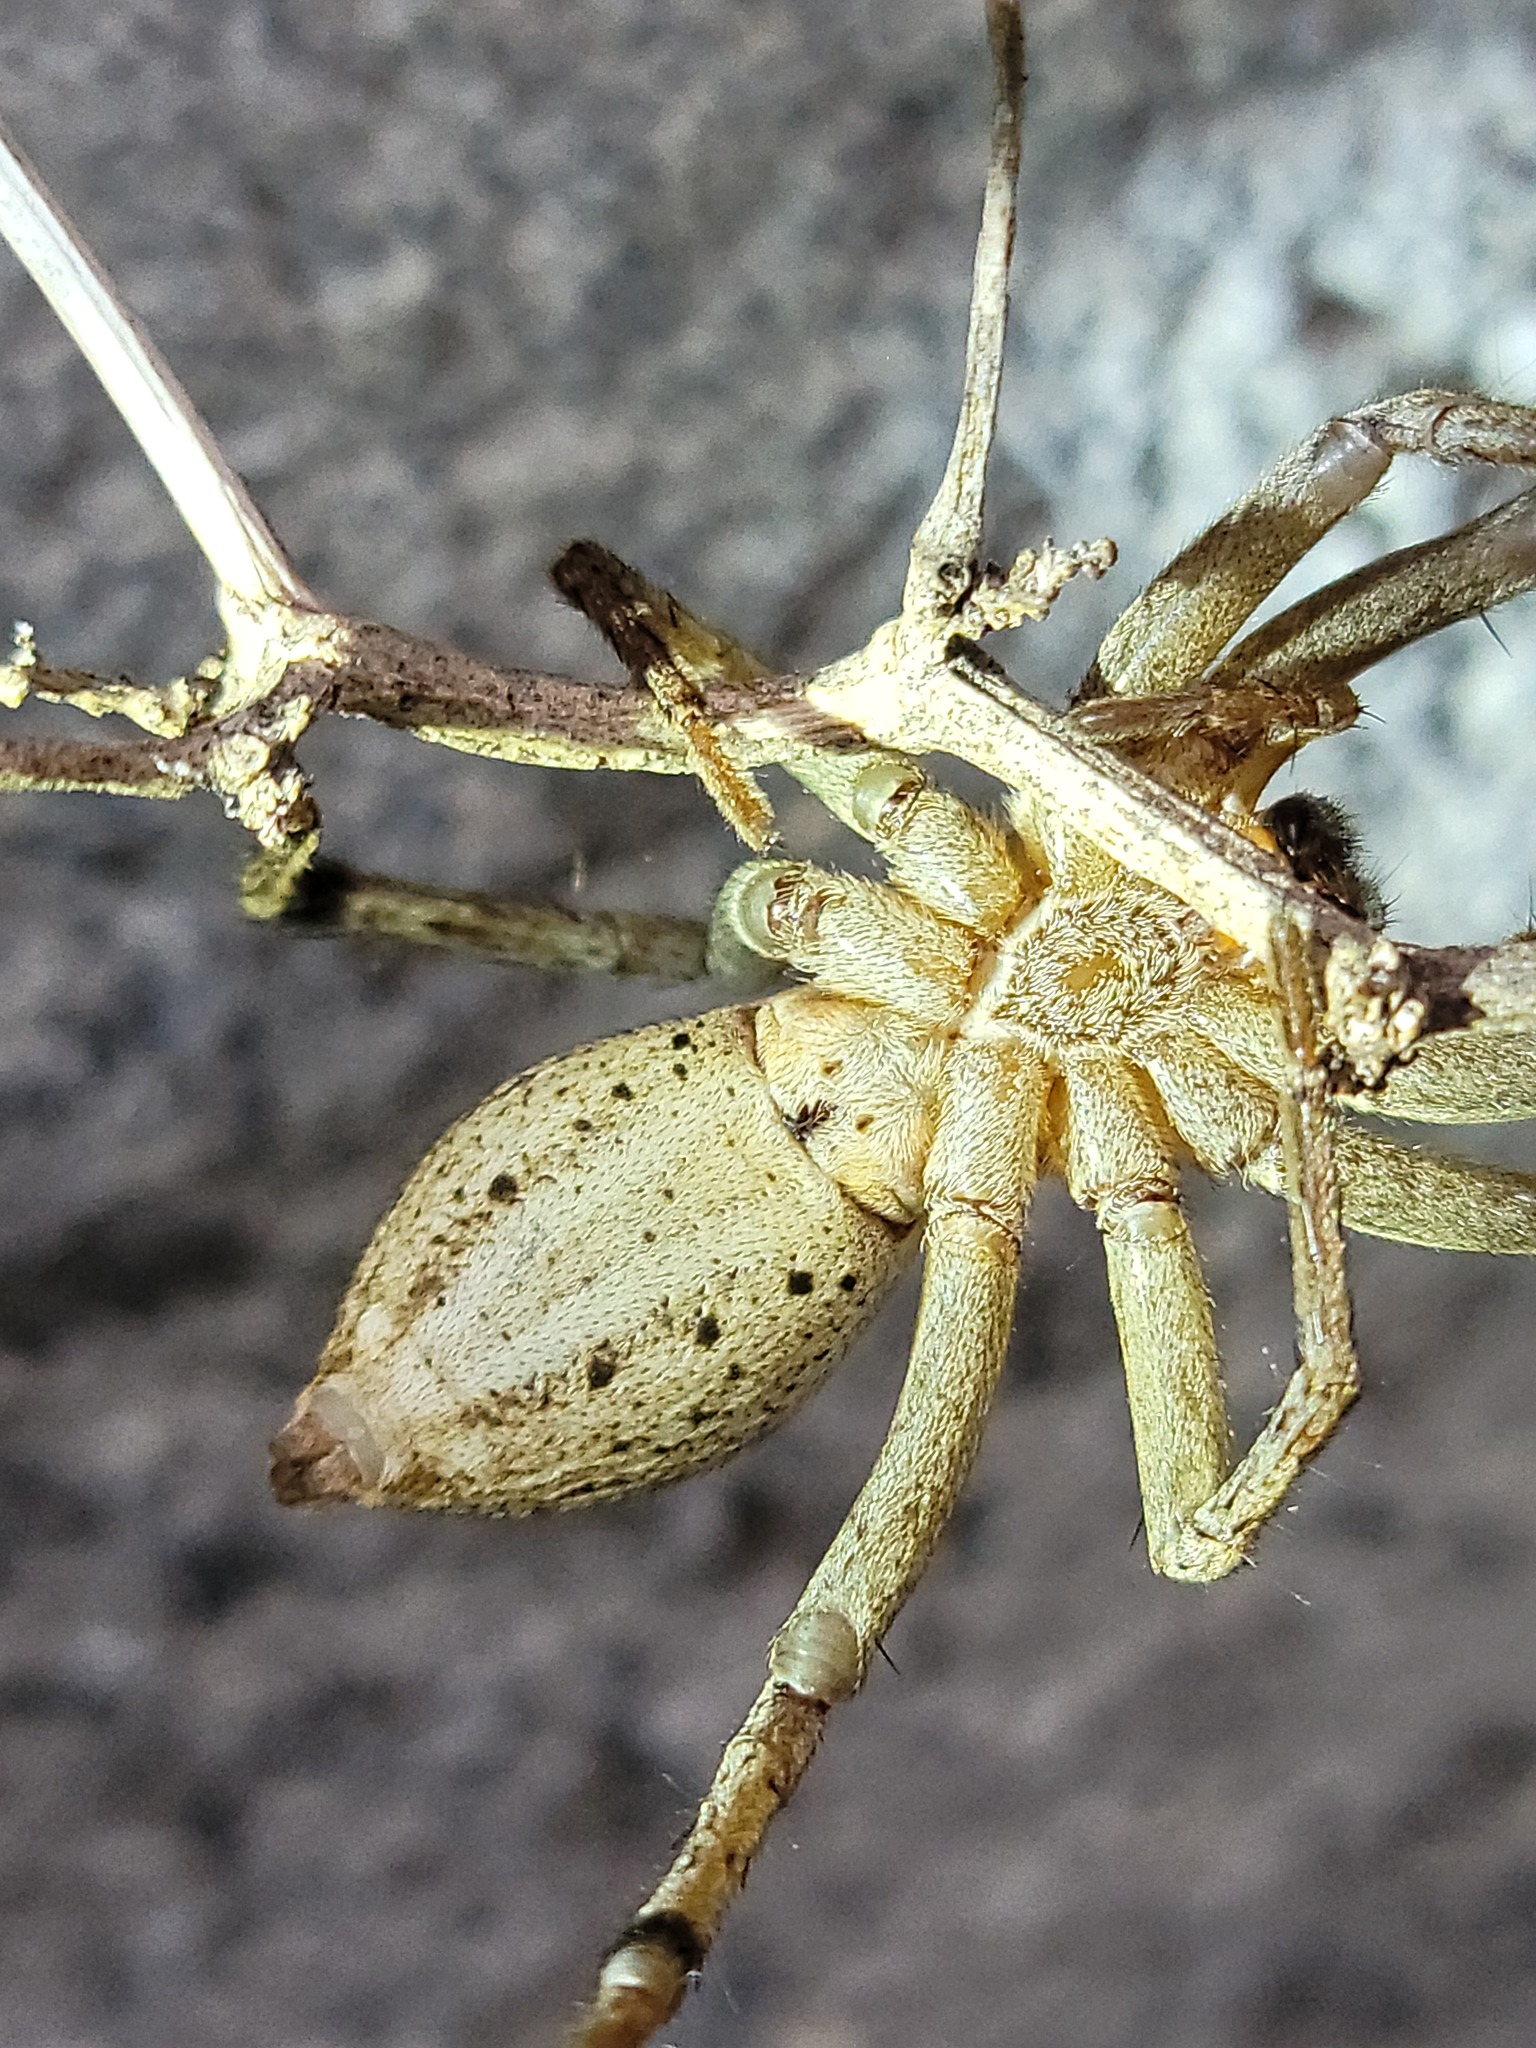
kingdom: Animalia
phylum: Arthropoda
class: Arachnida
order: Araneae
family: Lycosidae
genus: Rabidosa
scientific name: Rabidosa rabida
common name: Rabid wolf spider
